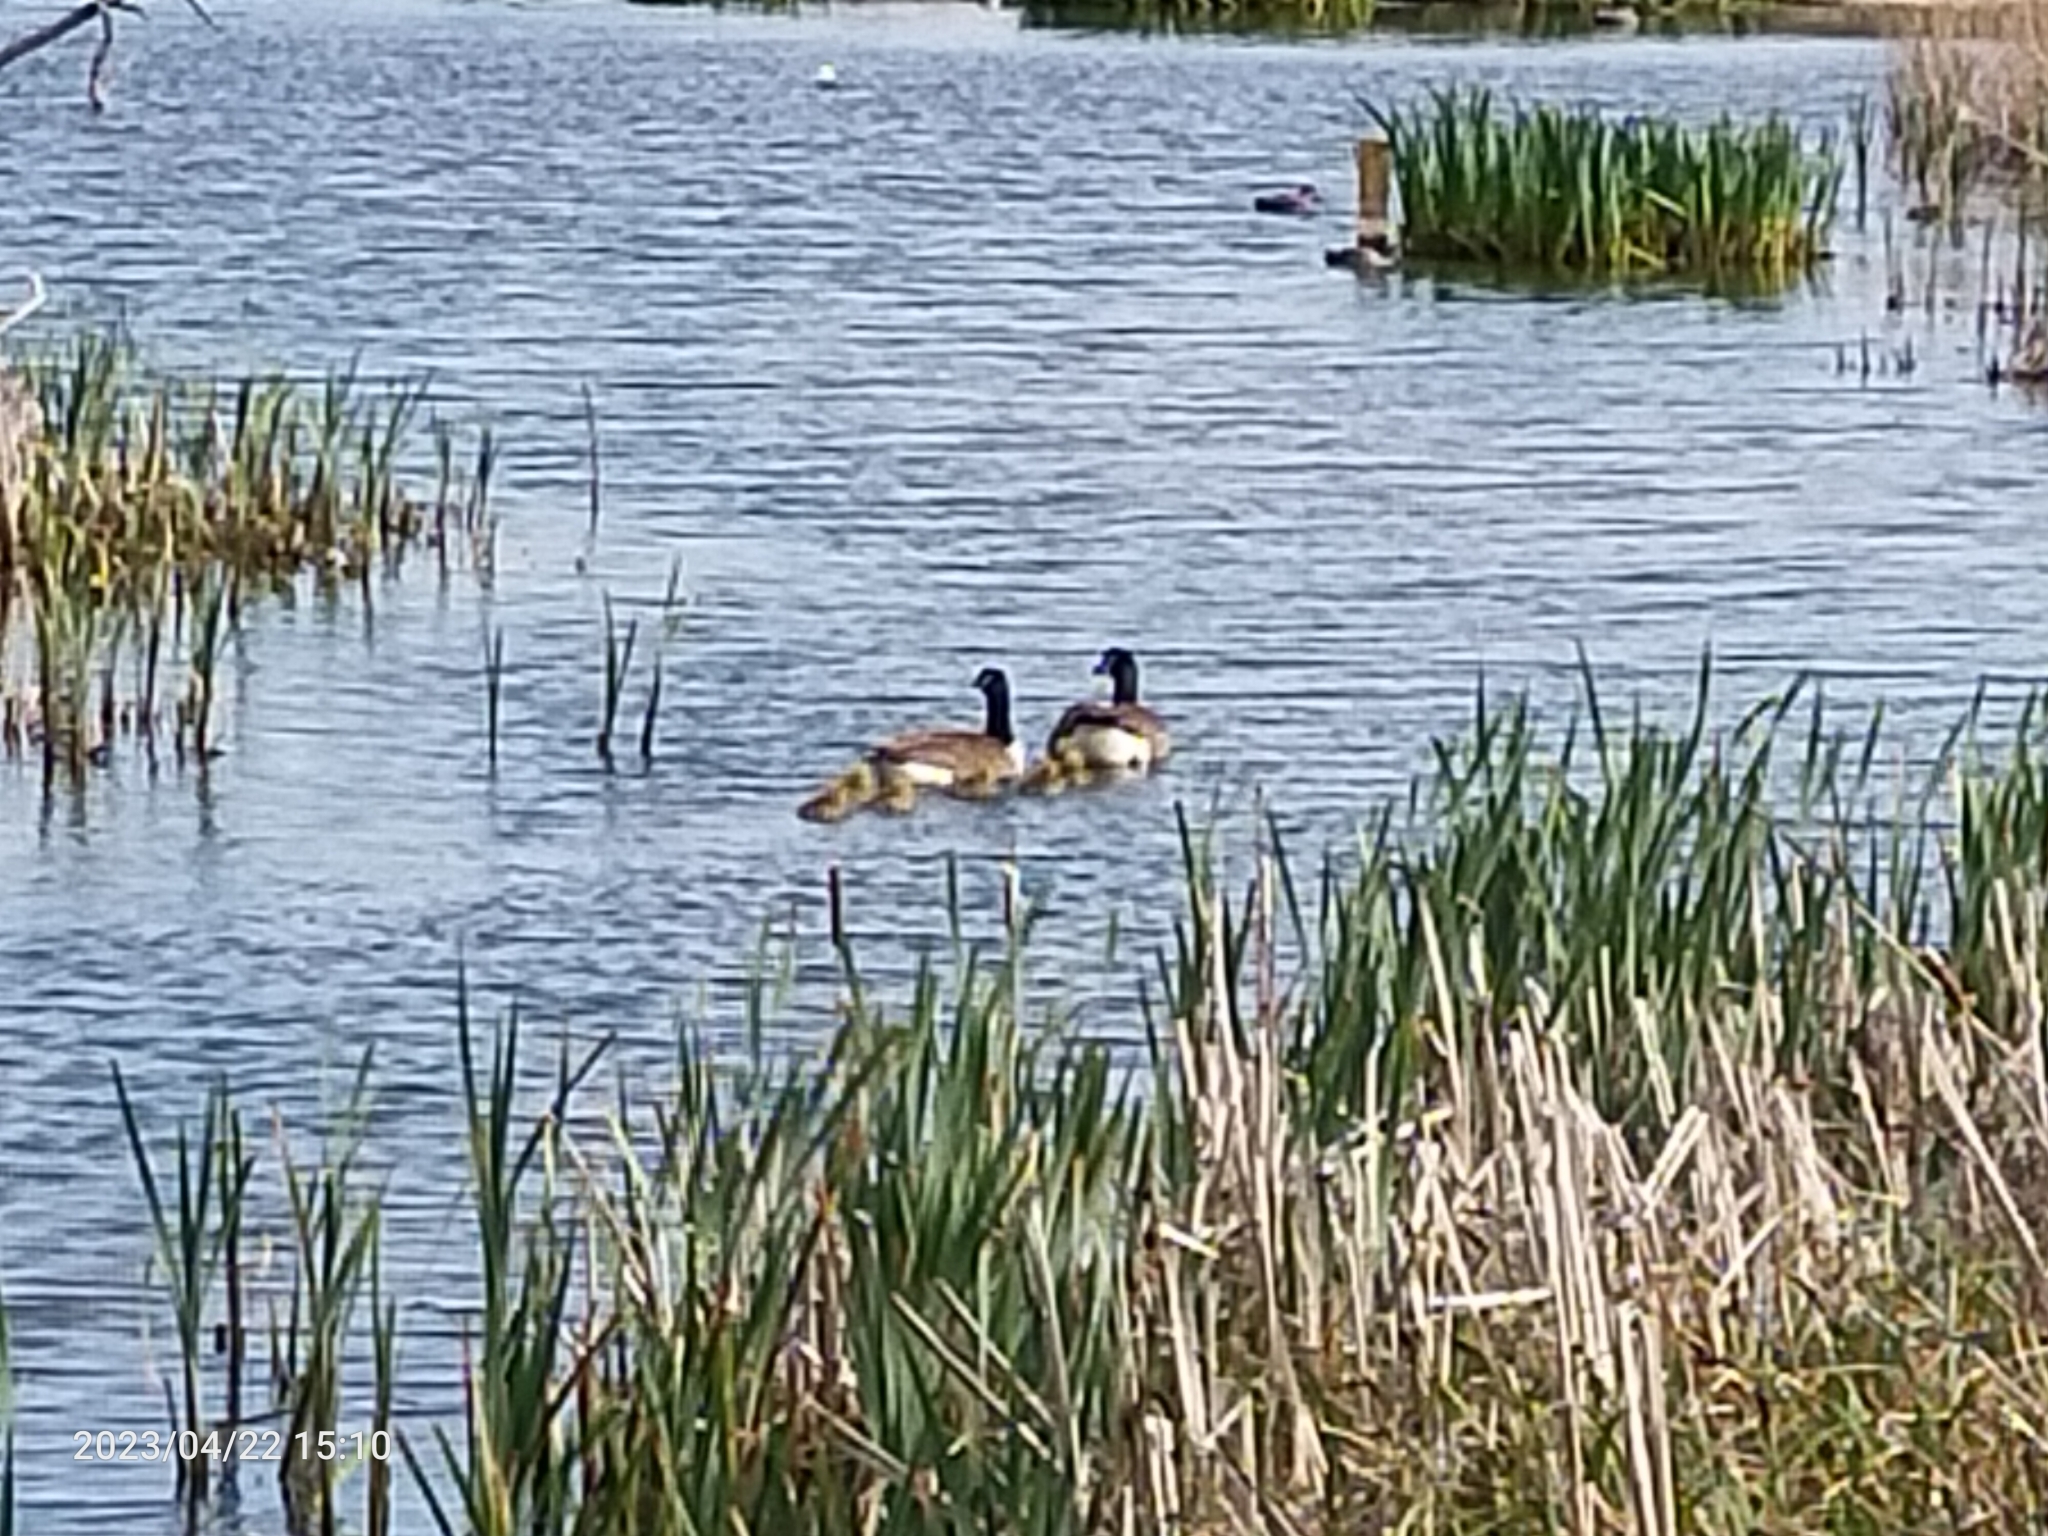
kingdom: Animalia
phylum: Chordata
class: Aves
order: Anseriformes
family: Anatidae
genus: Branta
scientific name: Branta canadensis
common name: Canada goose
